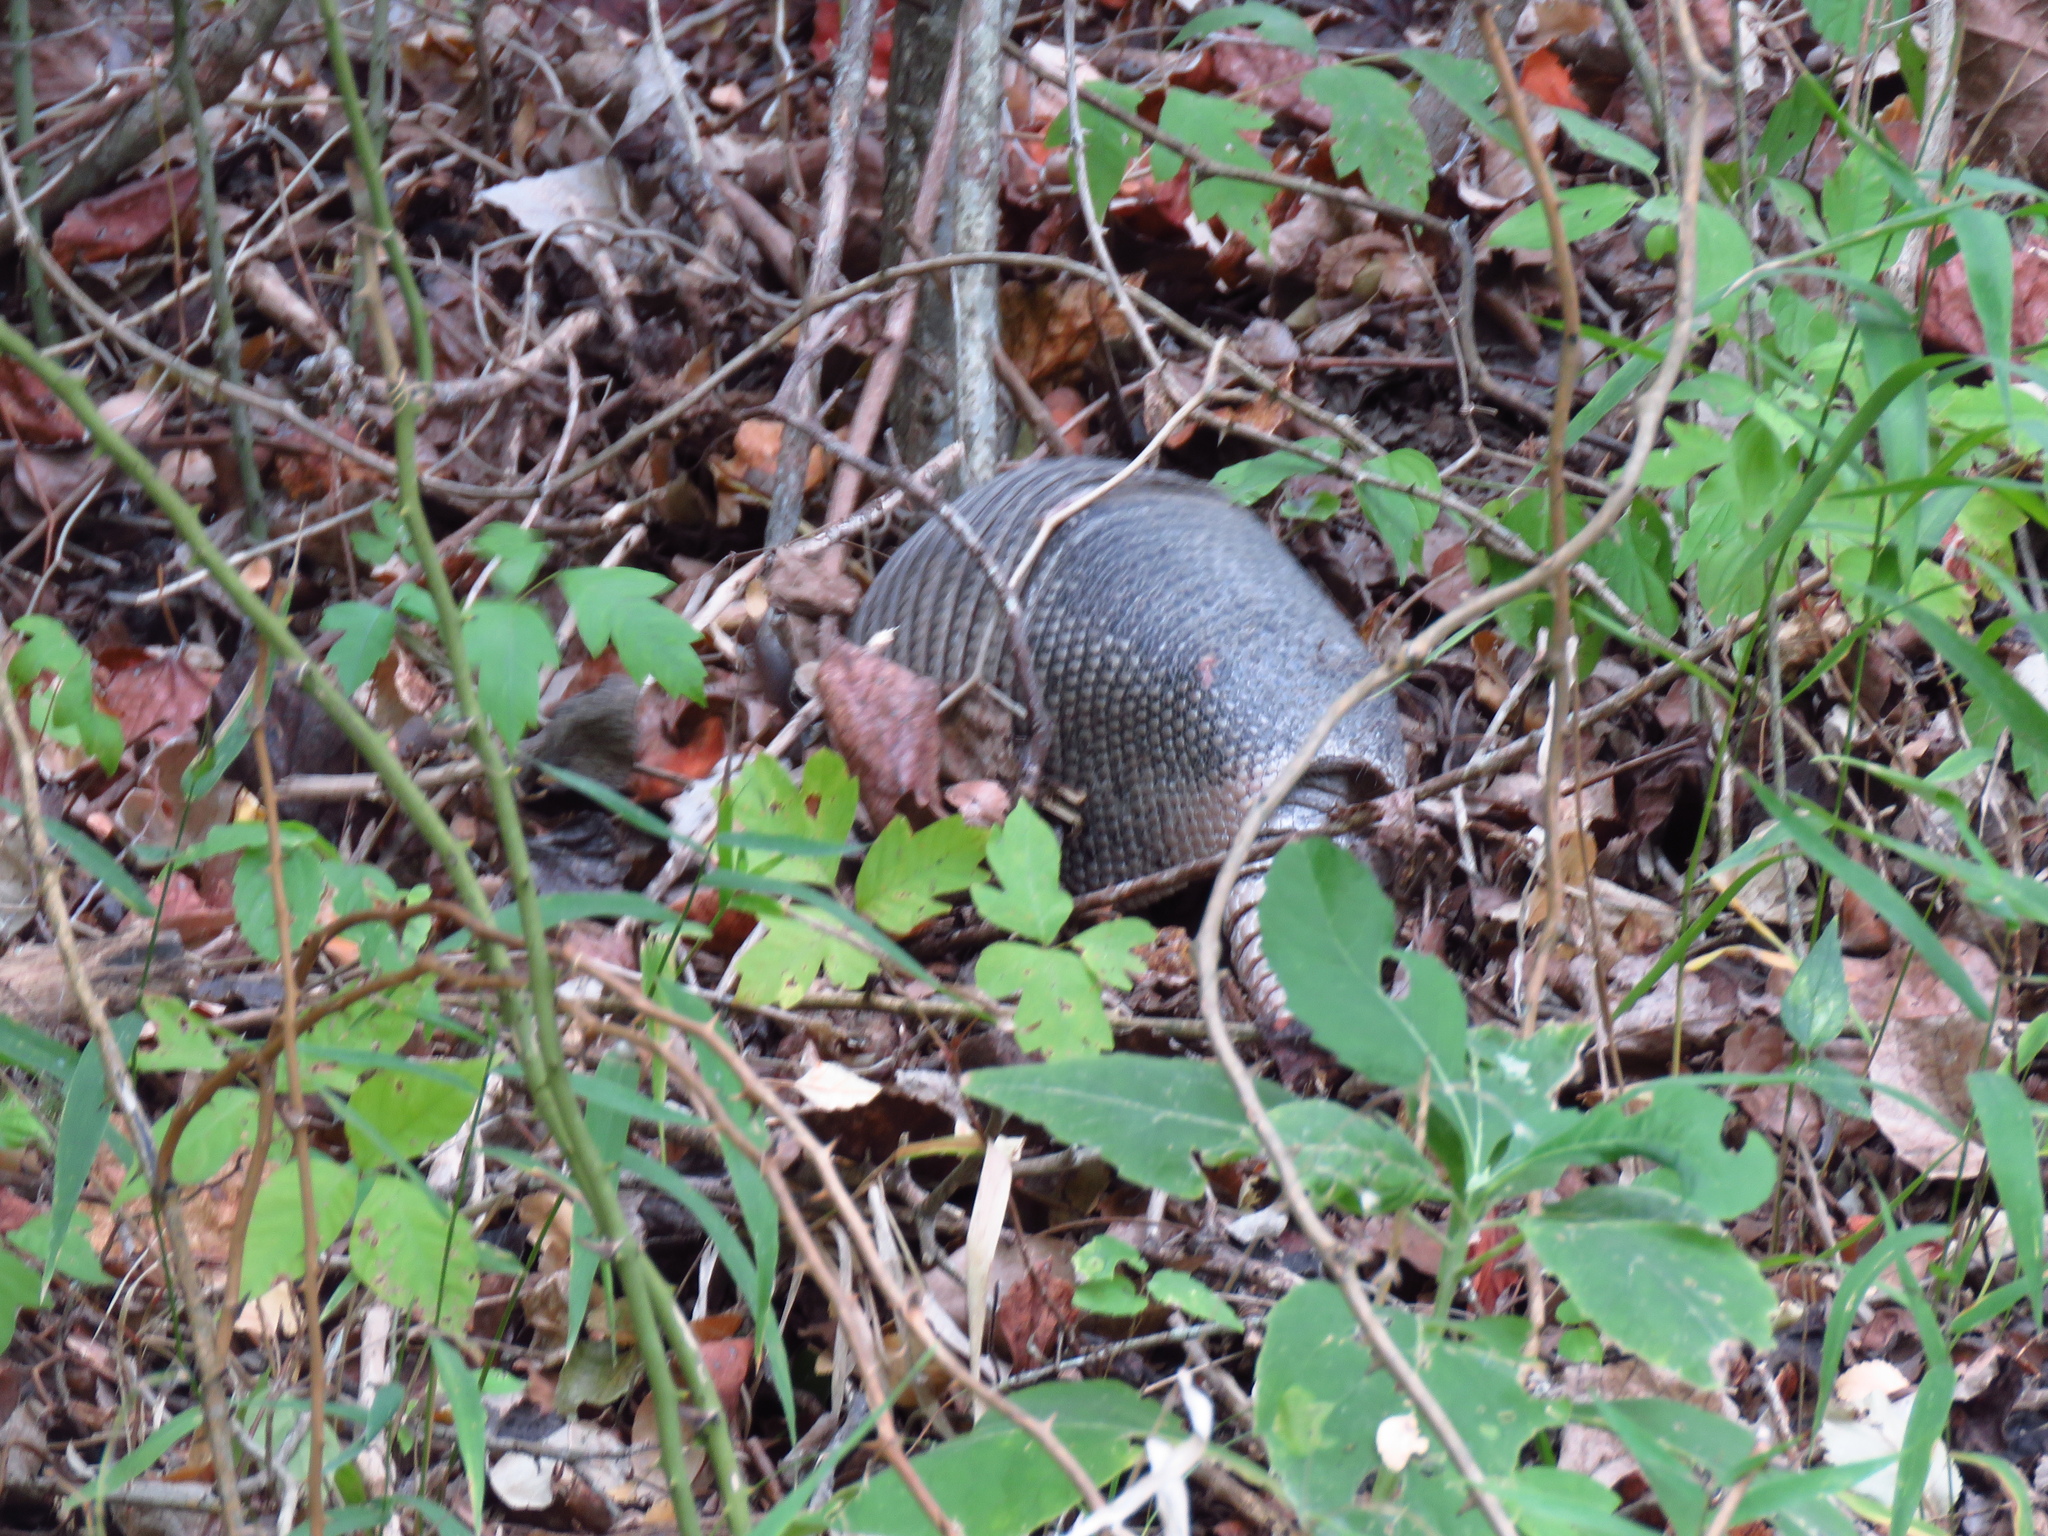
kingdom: Animalia
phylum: Chordata
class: Mammalia
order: Cingulata
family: Dasypodidae
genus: Dasypus
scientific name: Dasypus novemcinctus
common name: Nine-banded armadillo
